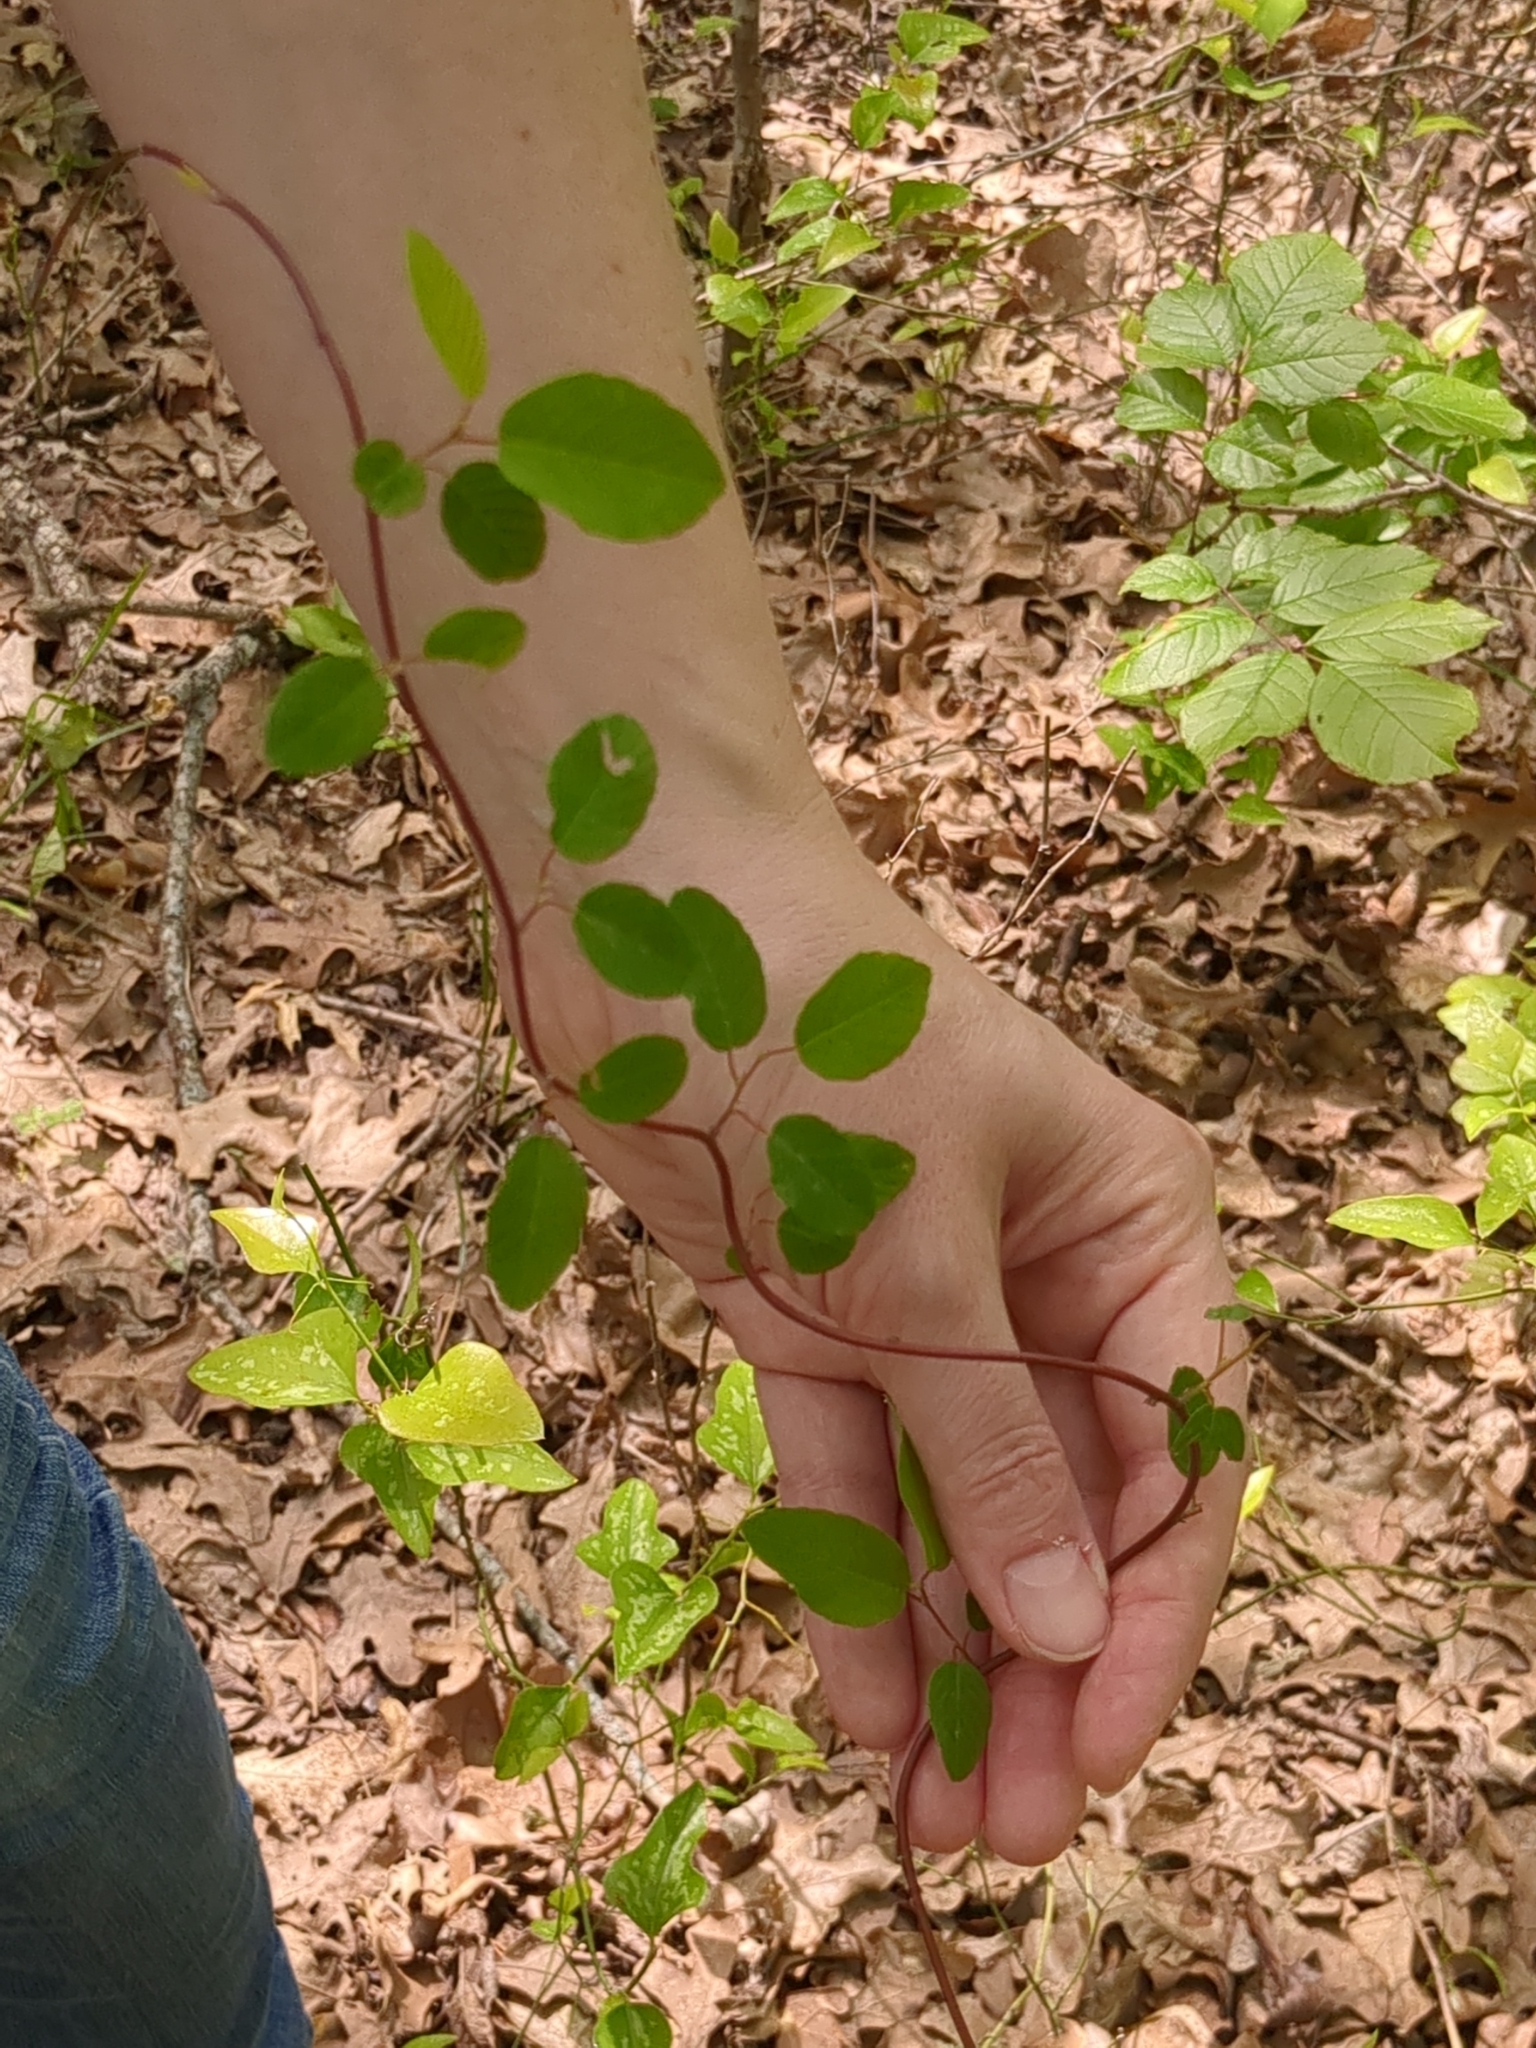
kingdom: Plantae
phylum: Tracheophyta
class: Magnoliopsida
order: Rosales
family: Rhamnaceae
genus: Berchemia
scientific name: Berchemia scandens
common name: Supplejack
